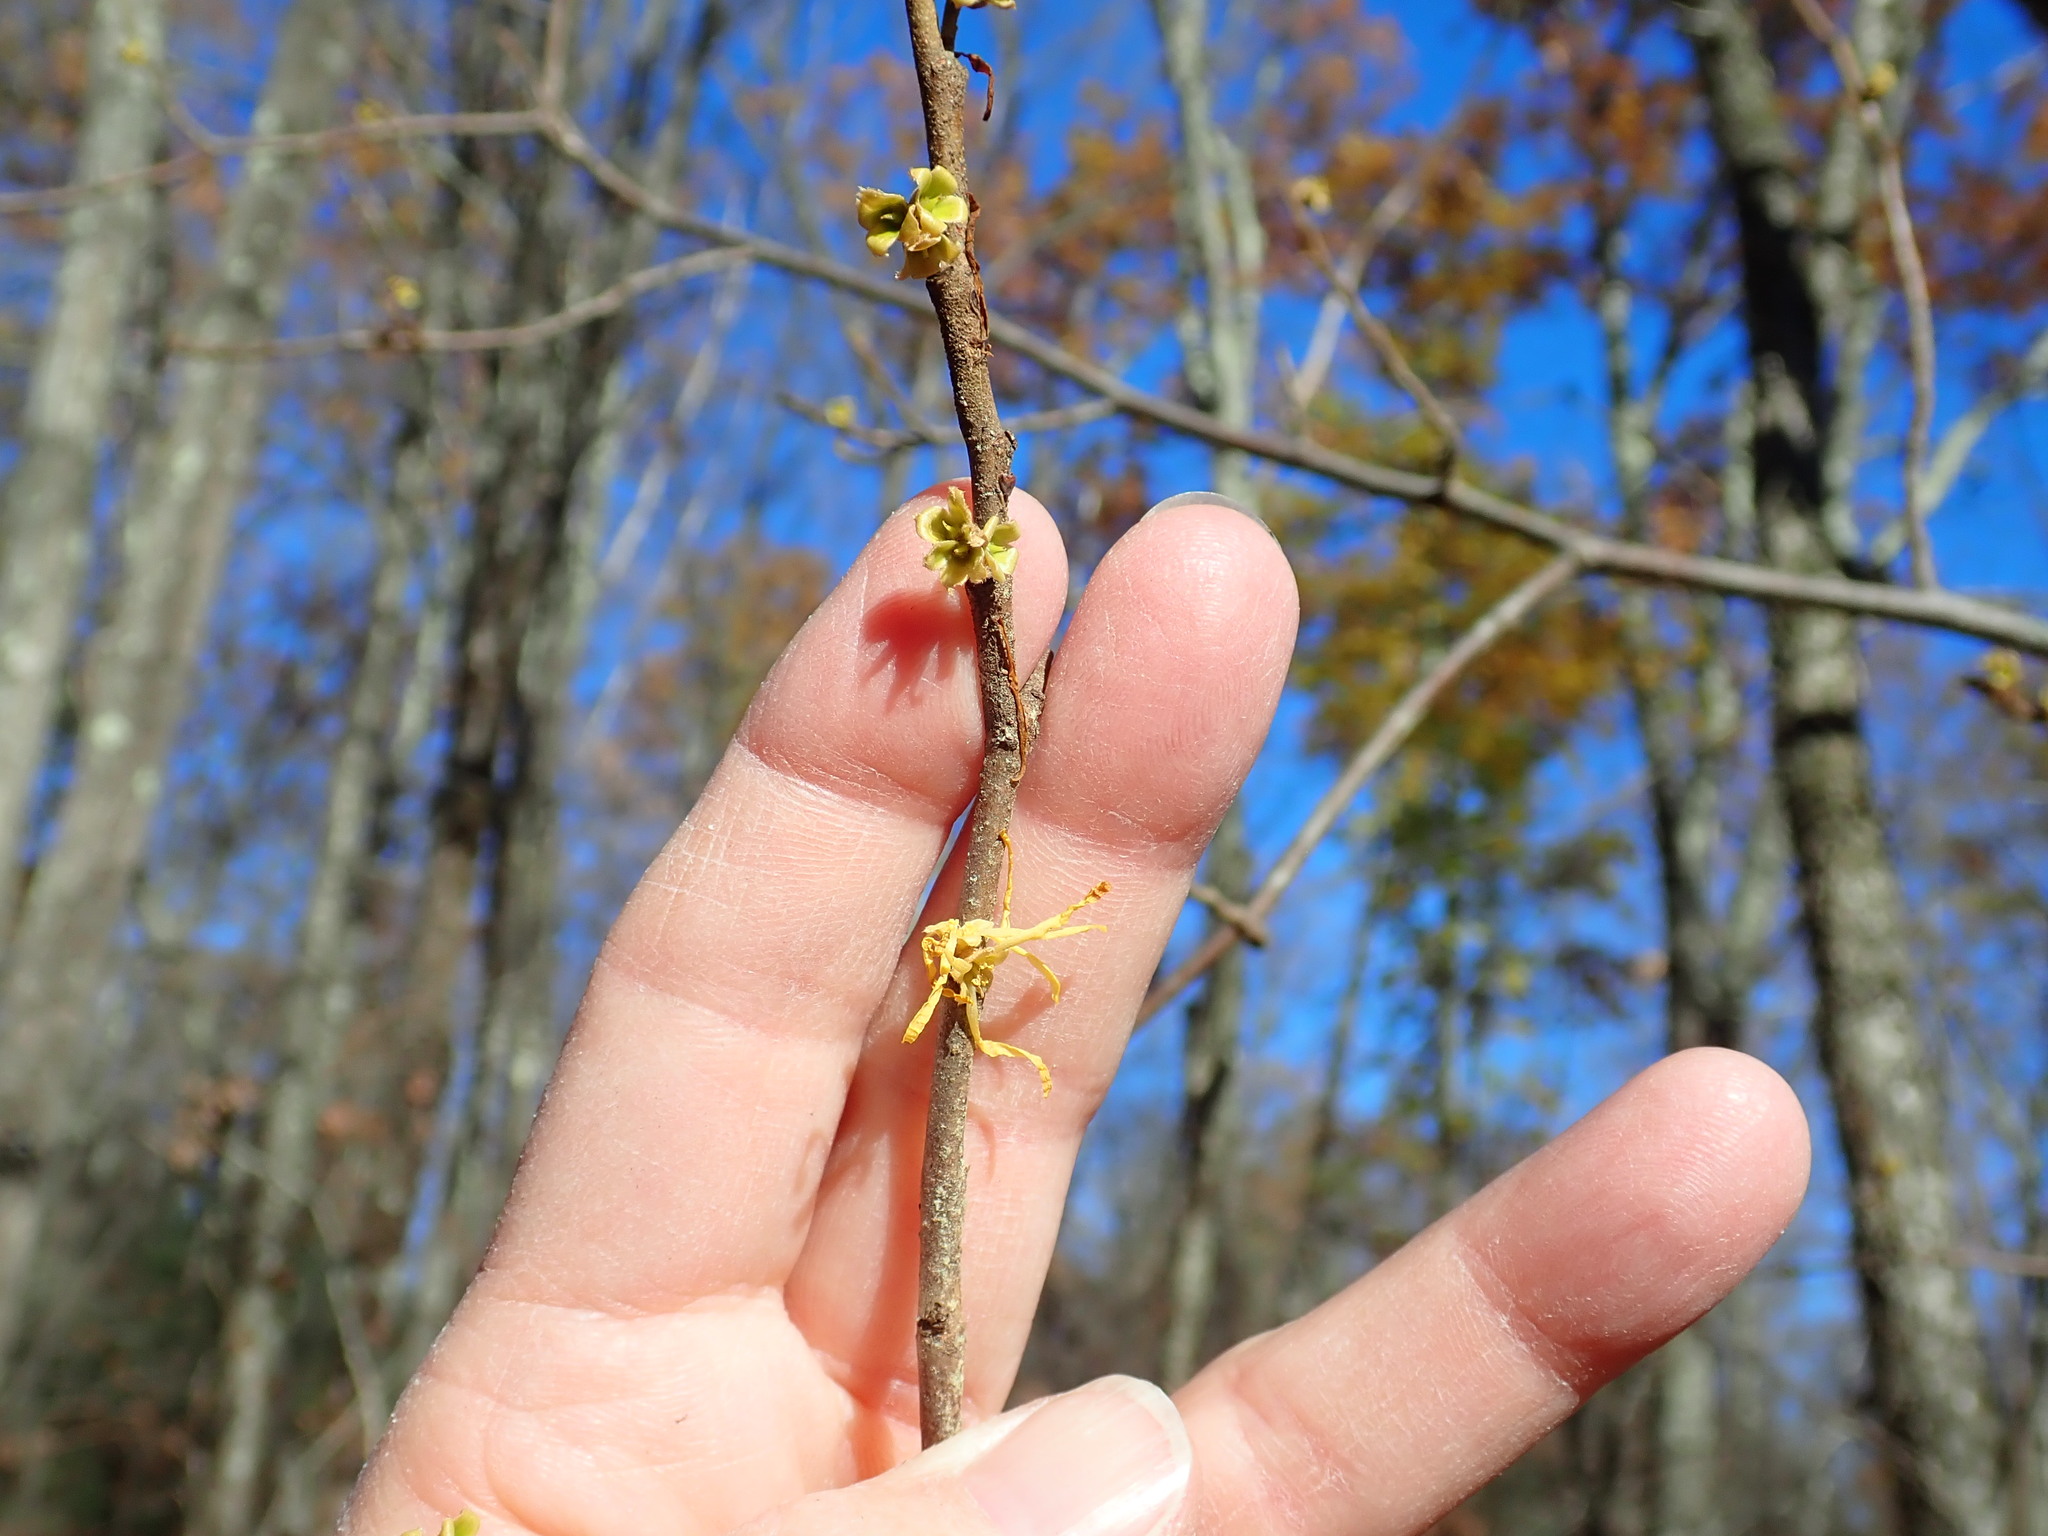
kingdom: Plantae
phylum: Tracheophyta
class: Magnoliopsida
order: Saxifragales
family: Hamamelidaceae
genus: Hamamelis
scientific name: Hamamelis virginiana
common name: Witch-hazel
